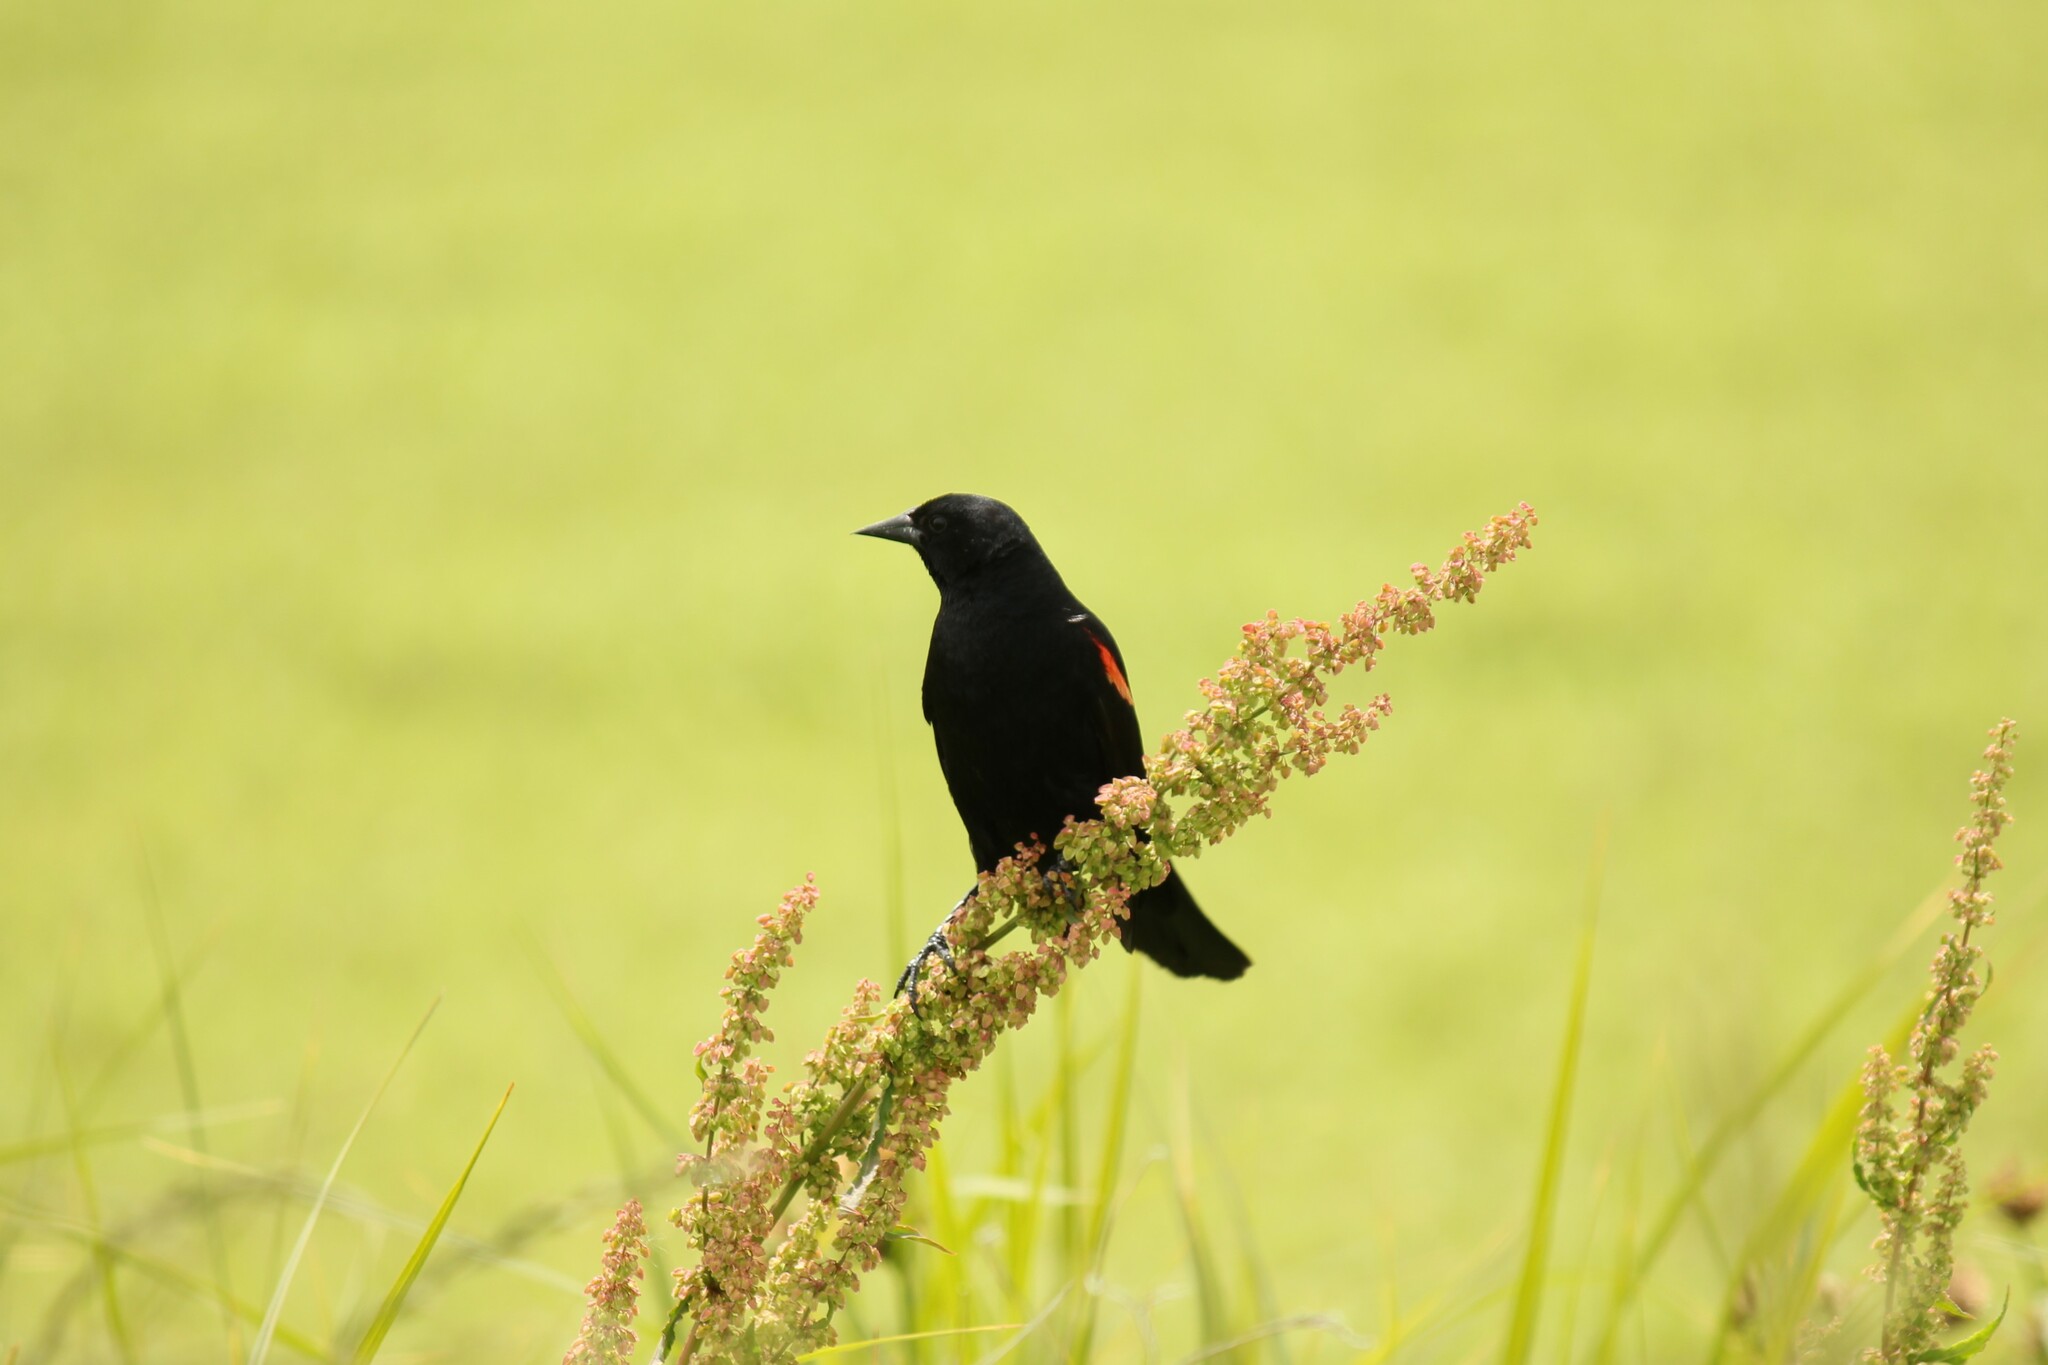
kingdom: Animalia
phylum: Chordata
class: Aves
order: Passeriformes
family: Icteridae
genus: Agelaius
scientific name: Agelaius phoeniceus
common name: Red-winged blackbird
